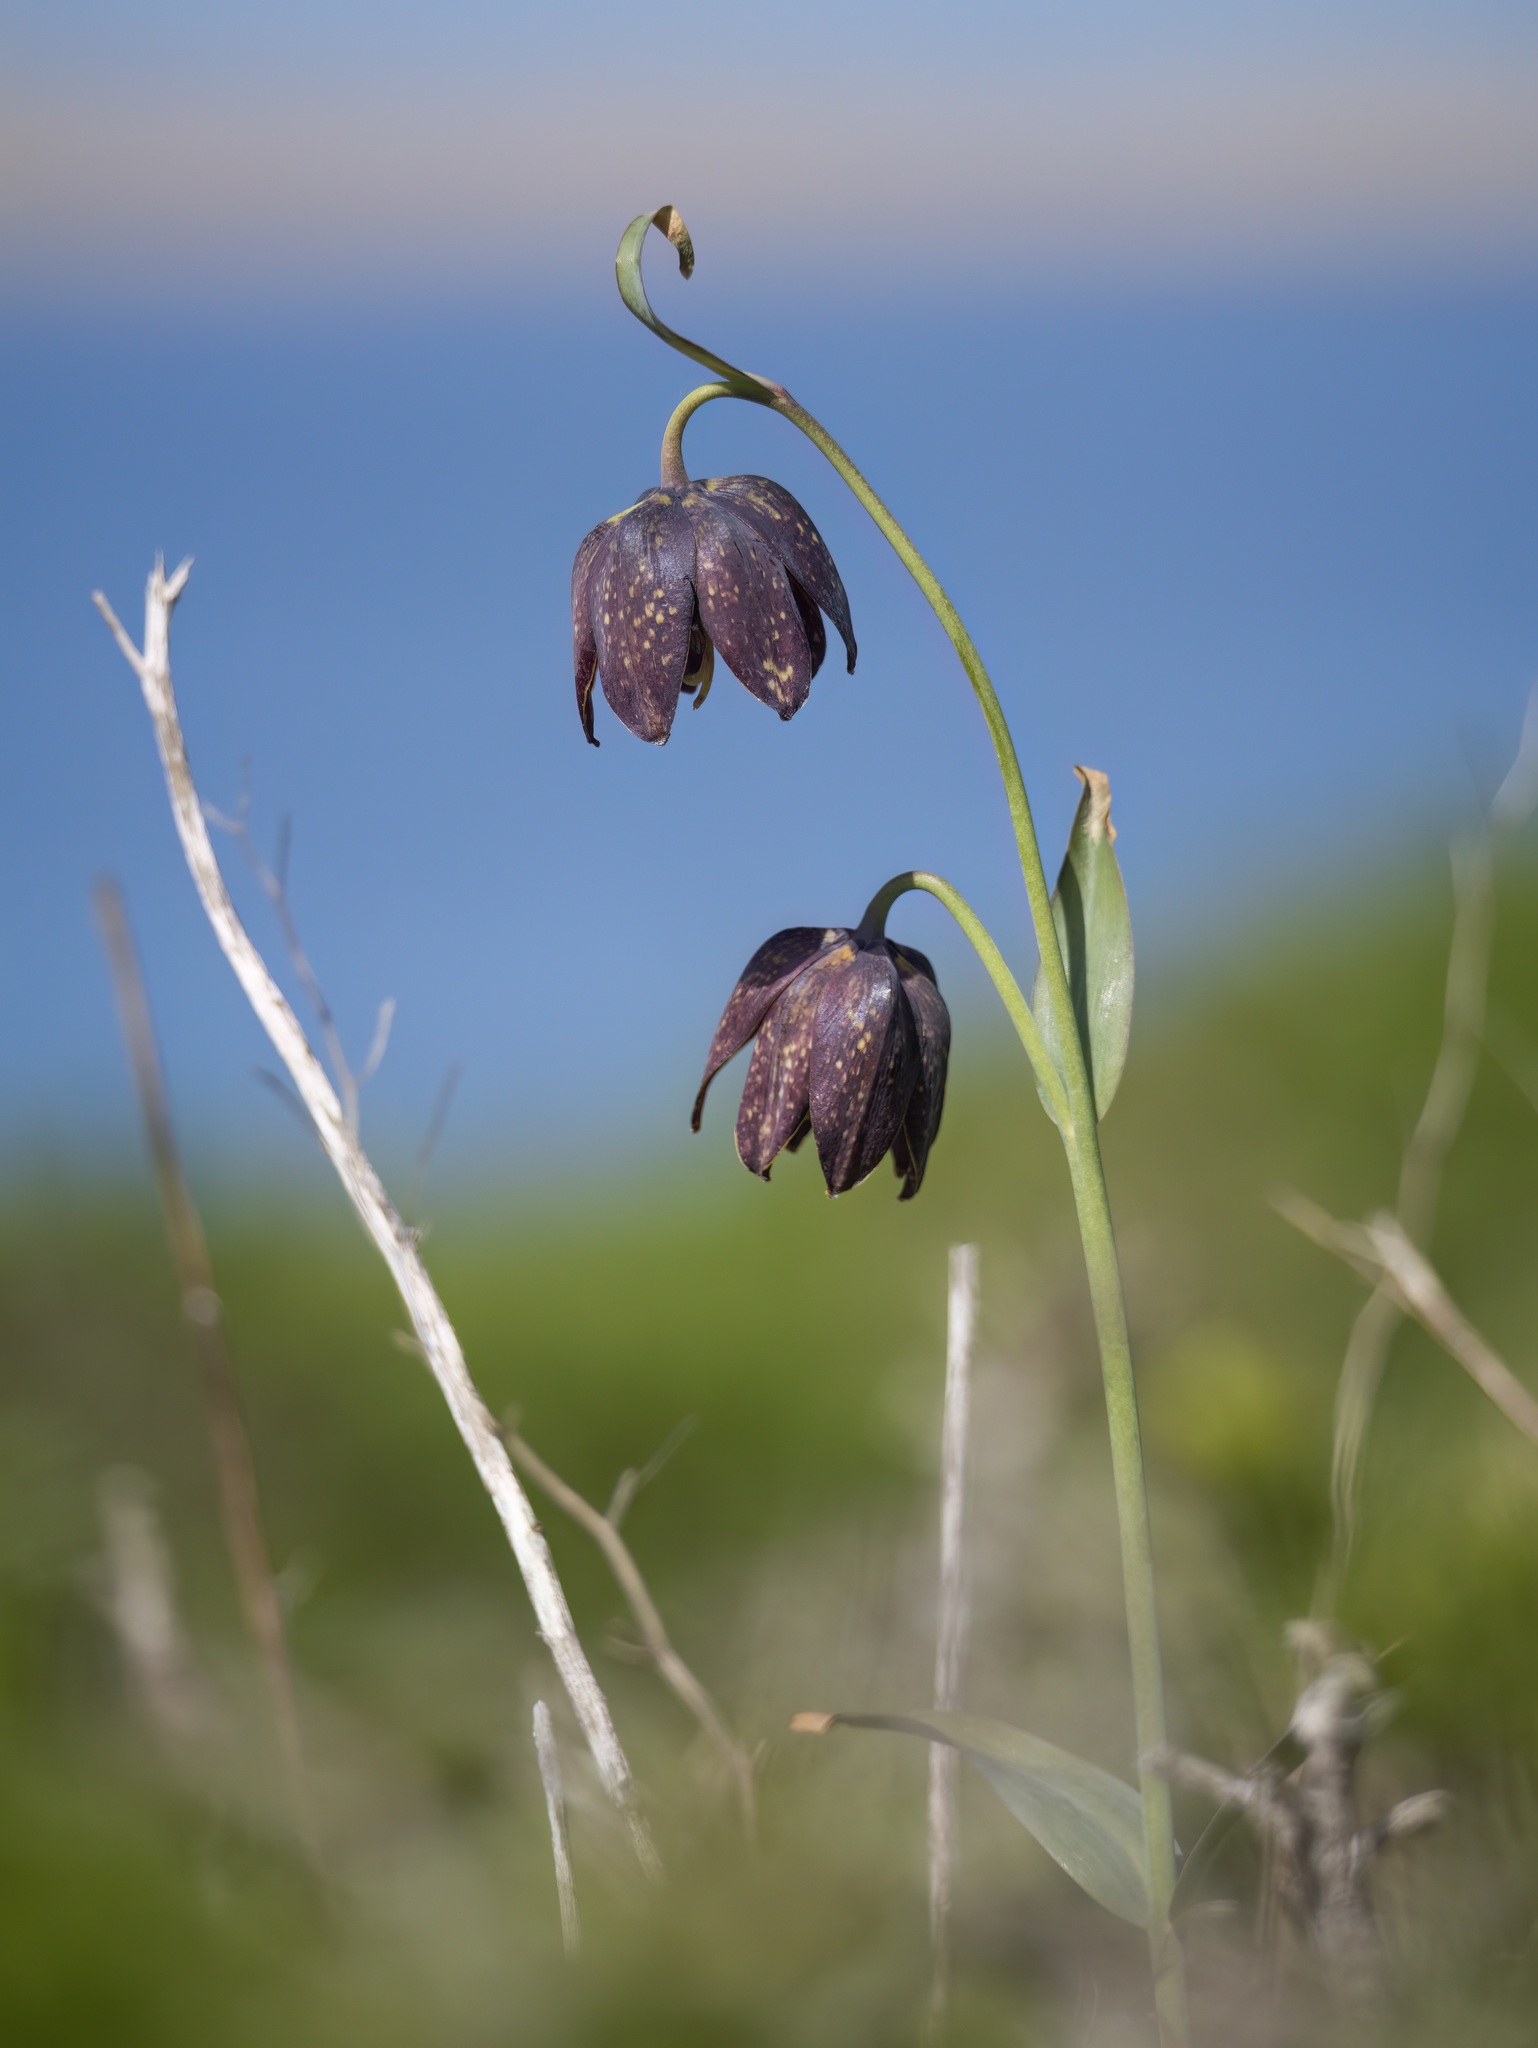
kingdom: Plantae
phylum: Tracheophyta
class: Liliopsida
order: Liliales
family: Liliaceae
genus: Fritillaria
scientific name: Fritillaria affinis
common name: Ojai fritillary
